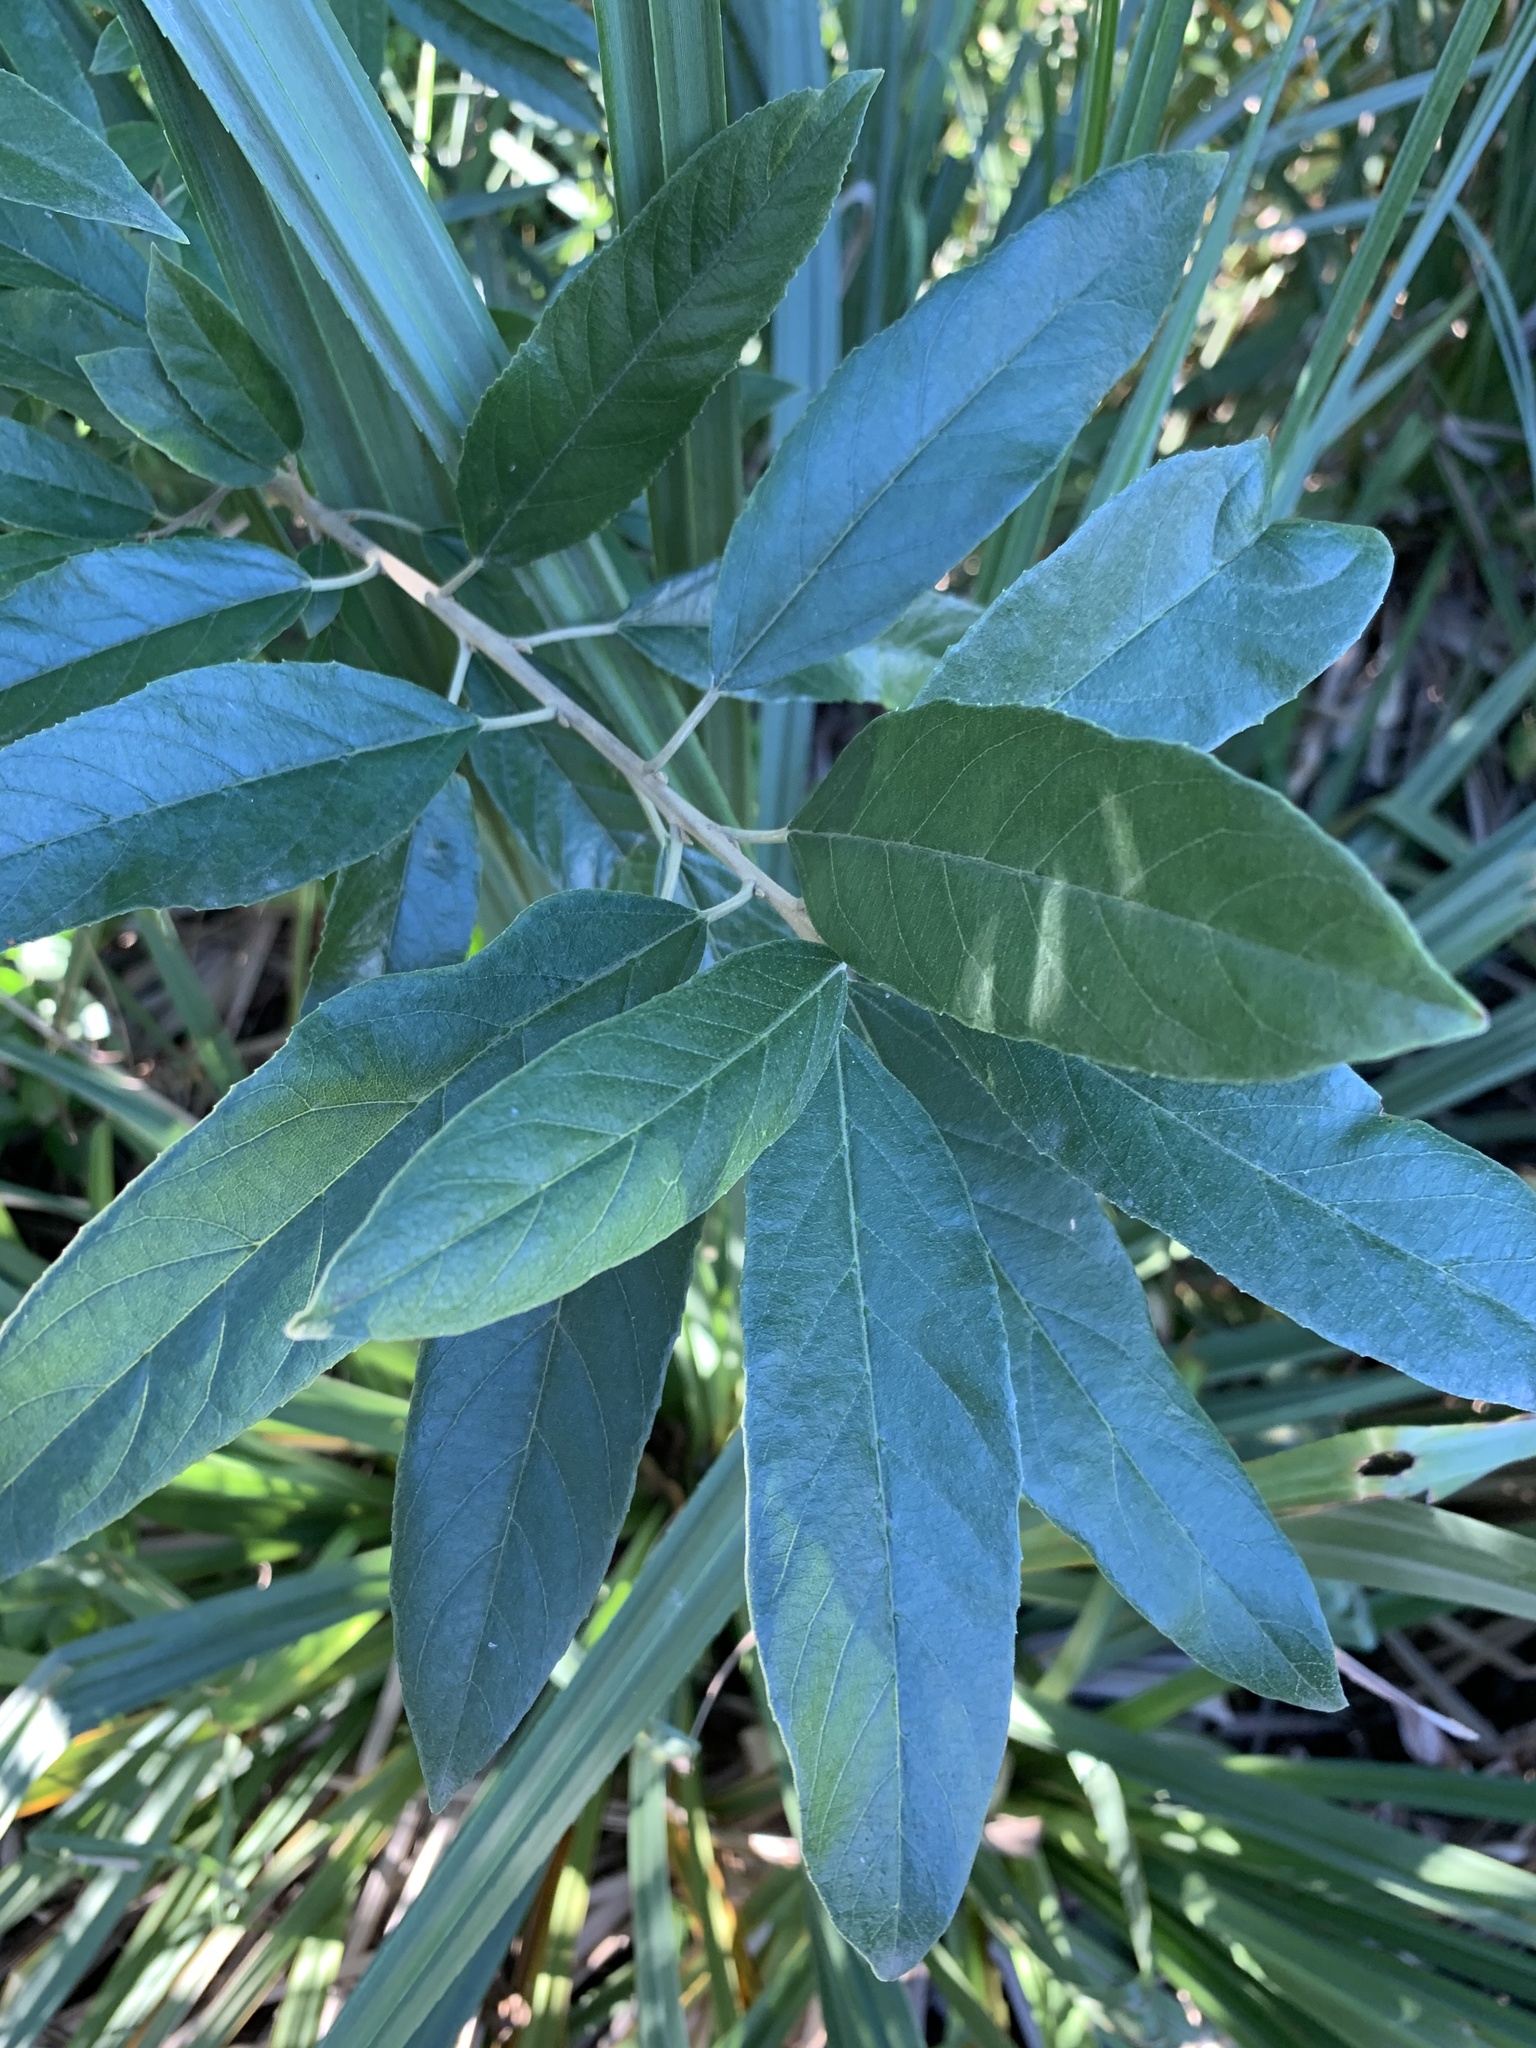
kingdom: Plantae
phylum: Tracheophyta
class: Magnoliopsida
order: Malpighiales
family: Achariaceae
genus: Kiggelaria
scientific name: Kiggelaria africana
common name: Wild peach
